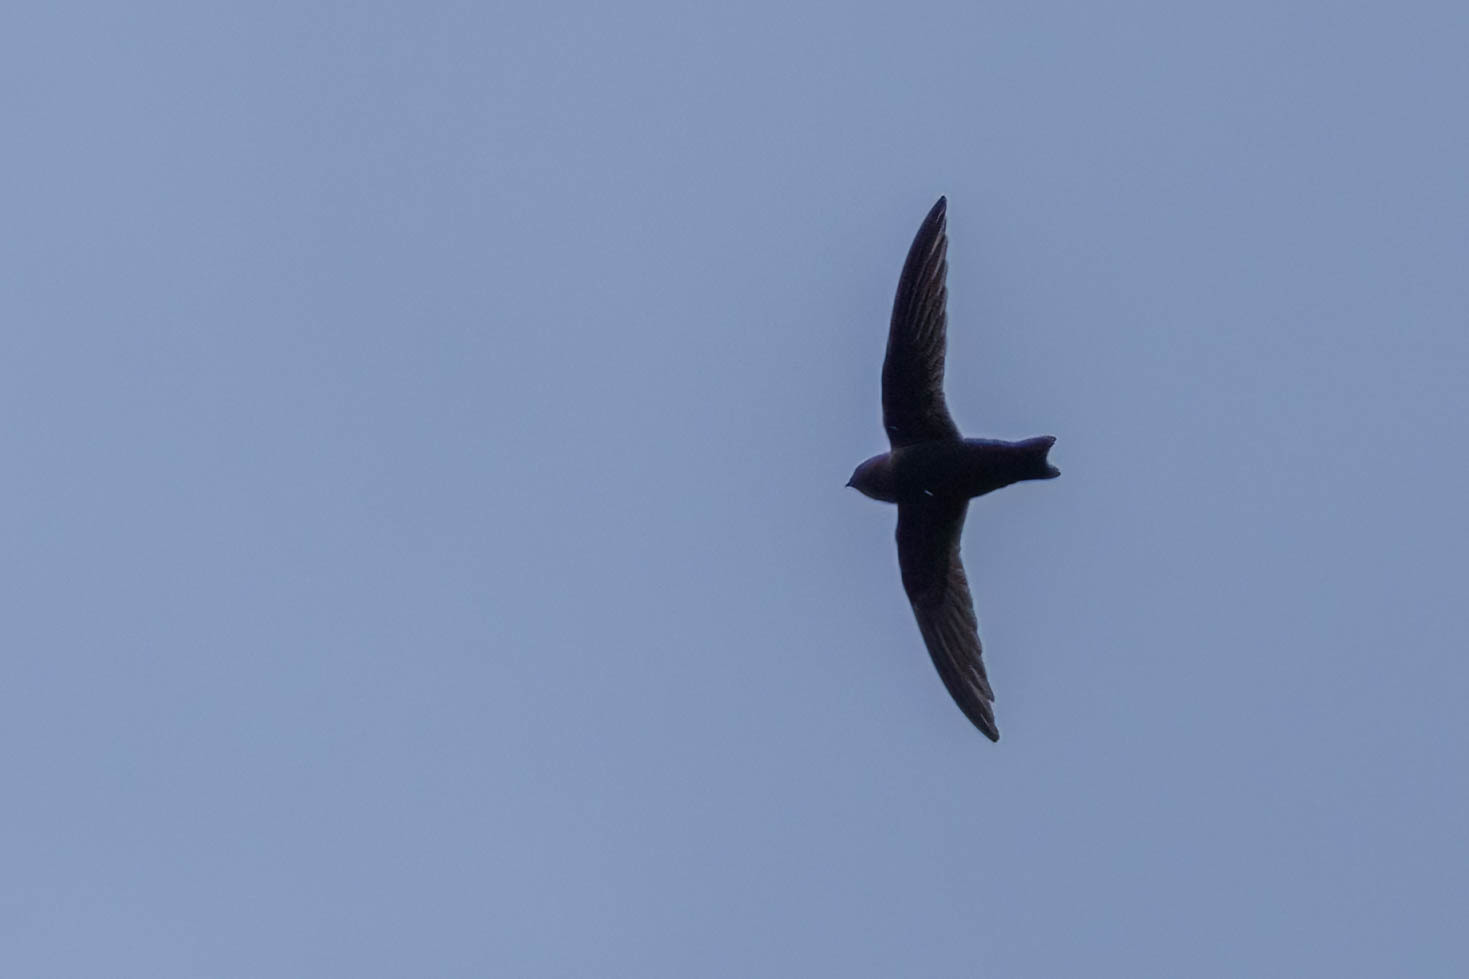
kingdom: Animalia
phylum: Chordata
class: Aves
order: Apodiformes
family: Apodidae
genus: Cypseloides
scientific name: Cypseloides niger
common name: Black swift
